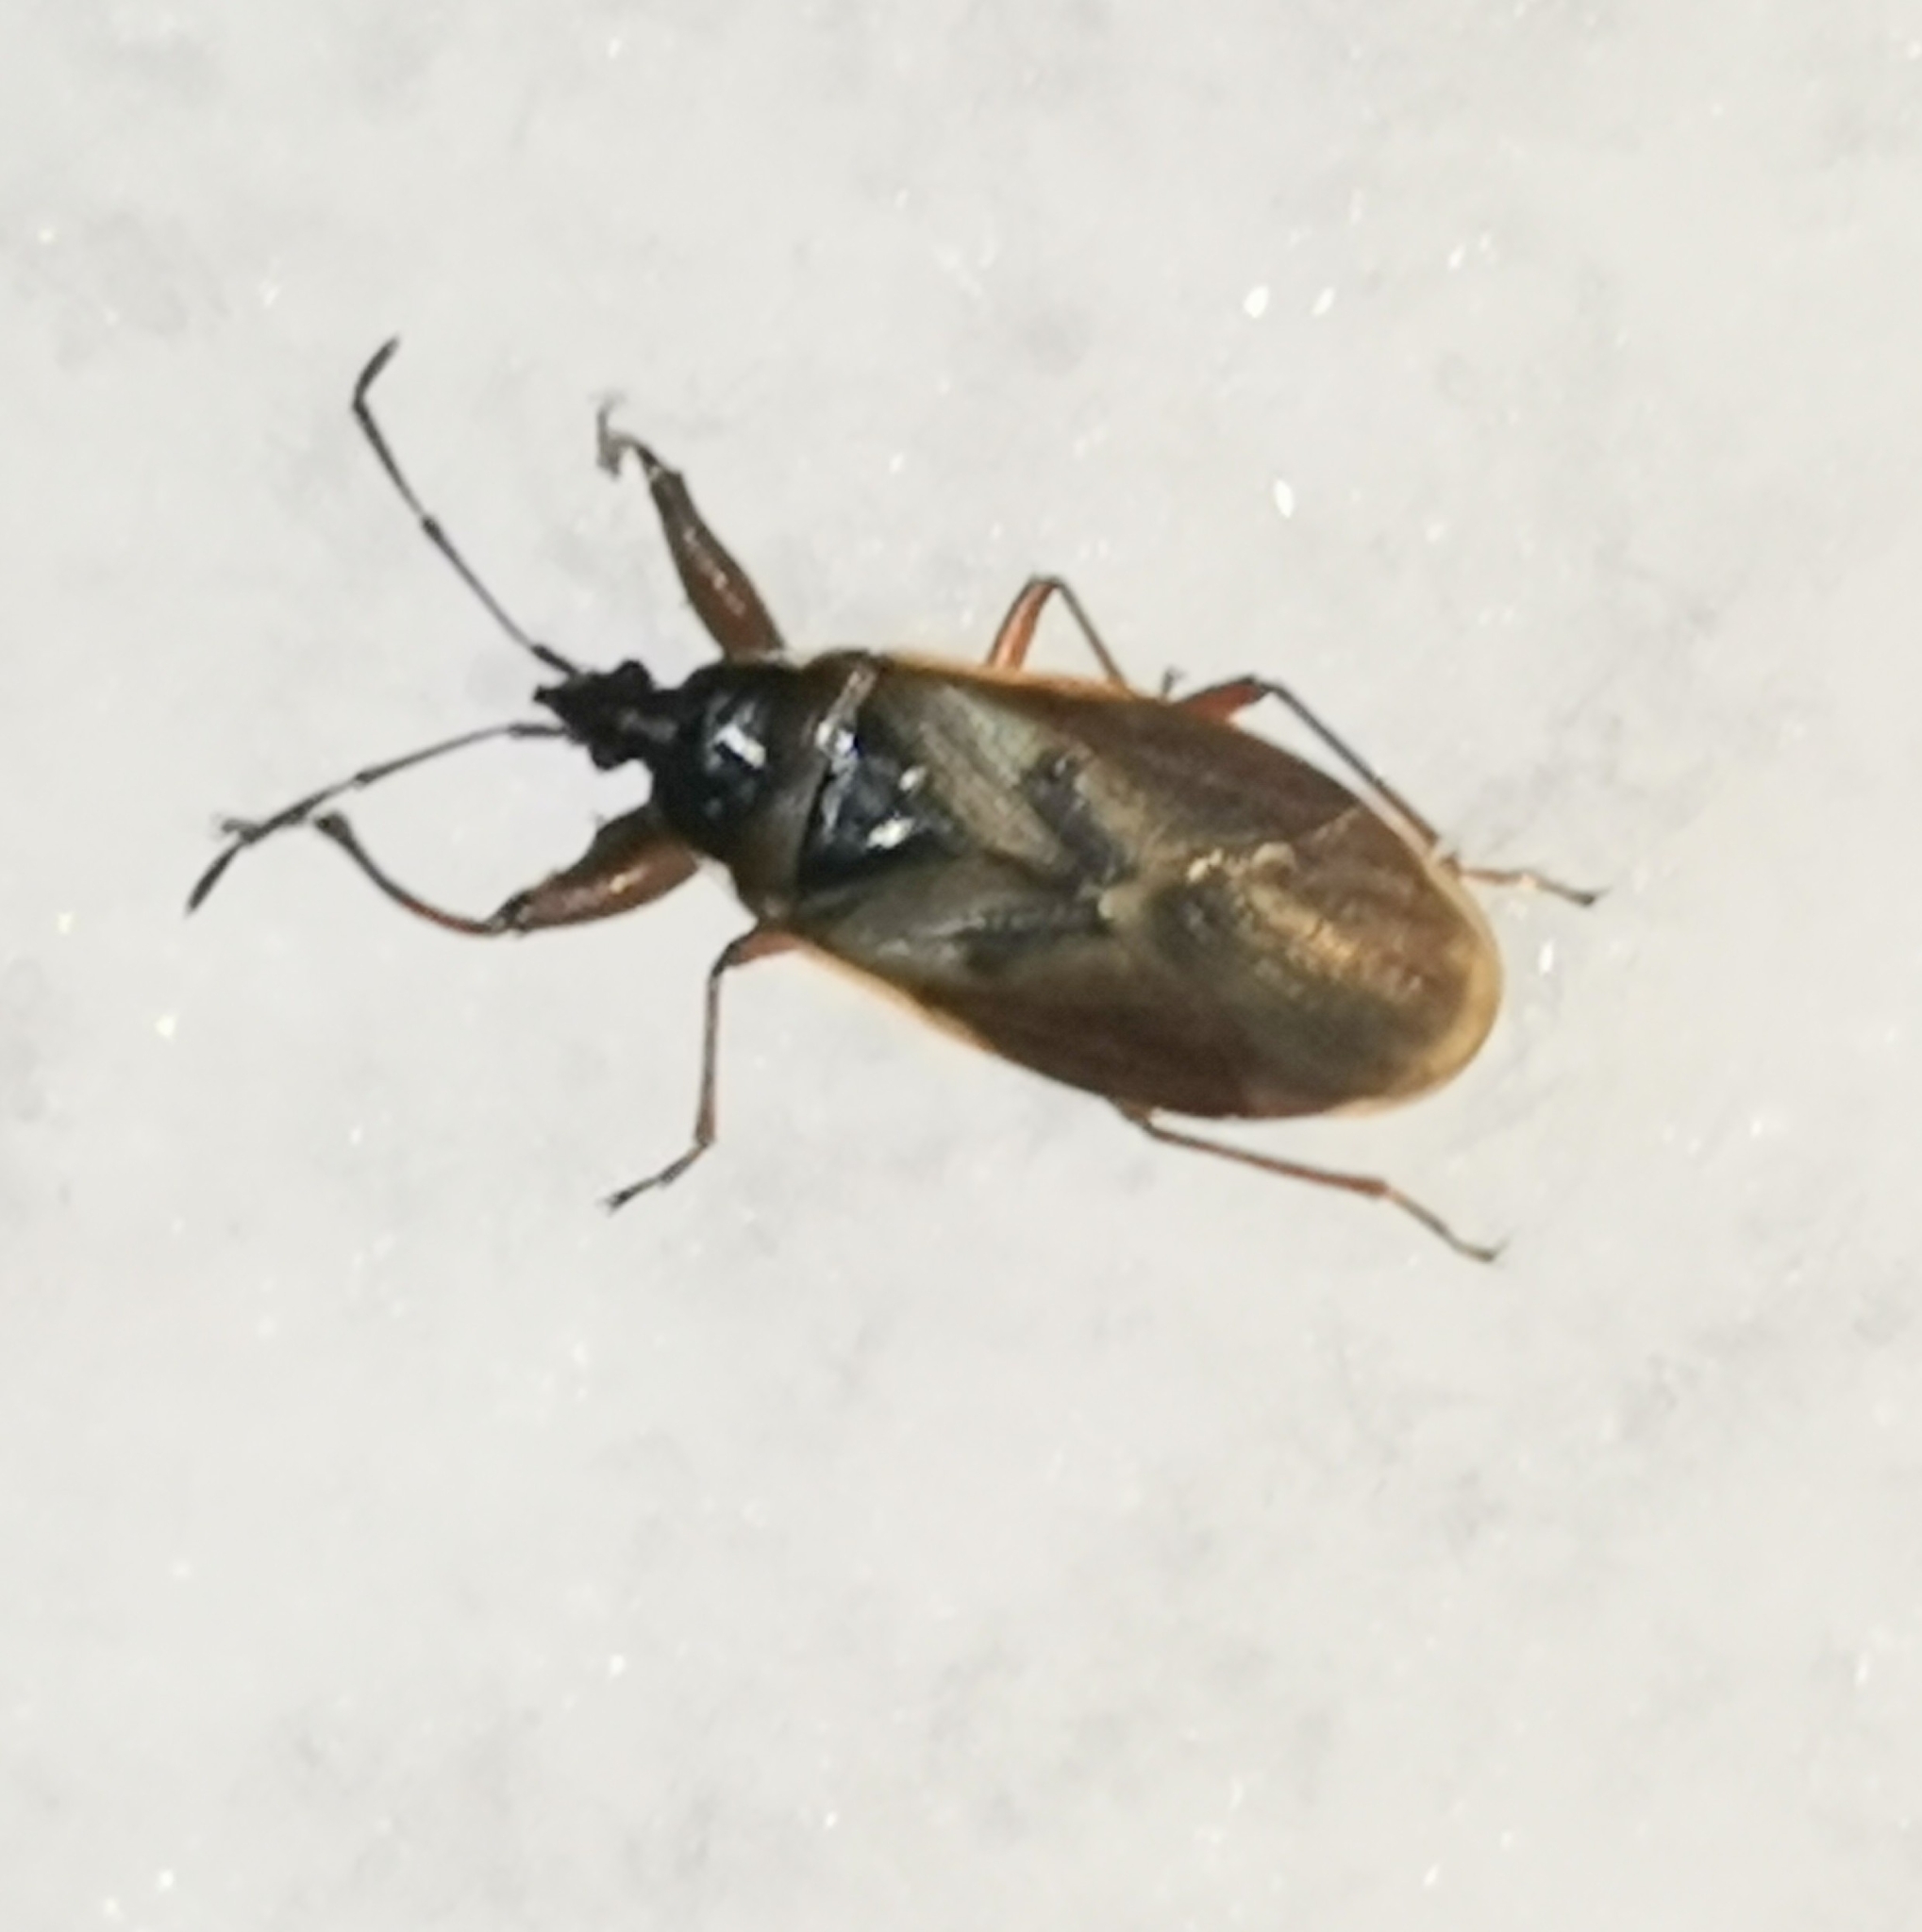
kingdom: Animalia
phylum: Arthropoda
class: Insecta
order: Hemiptera
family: Rhyparochromidae
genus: Gastrodes
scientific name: Gastrodes abietum
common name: Spruce cone bug
